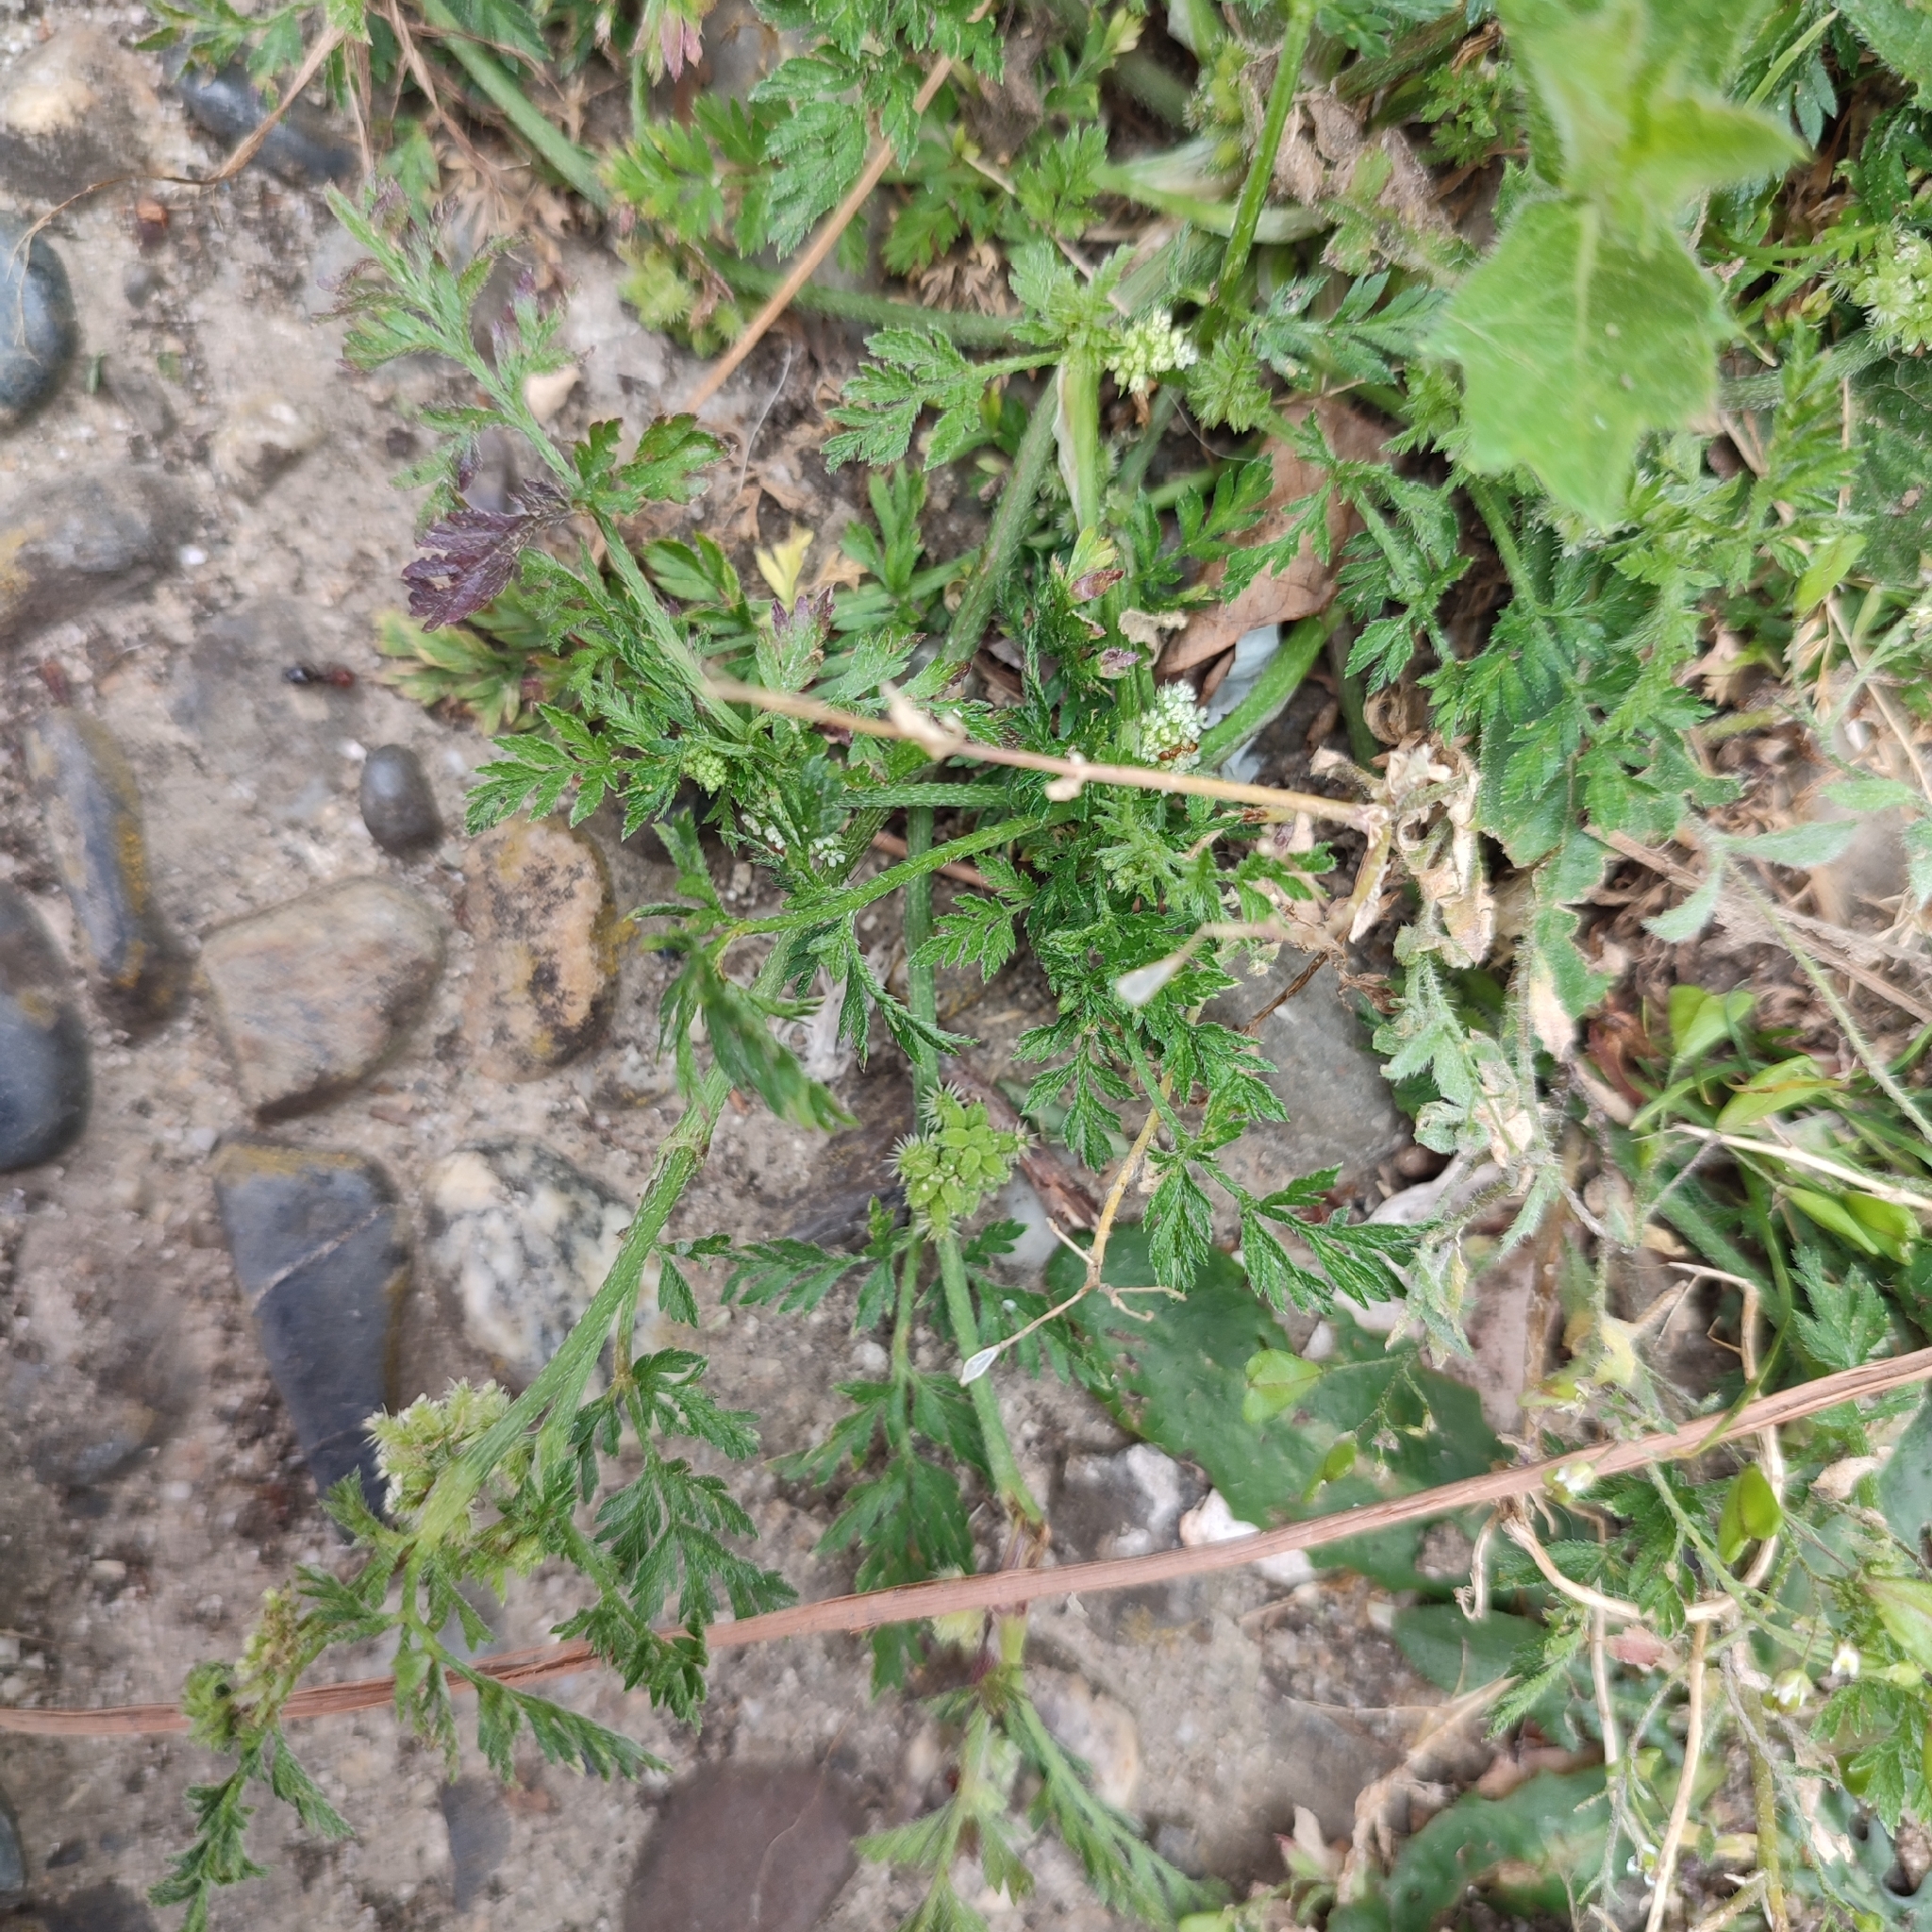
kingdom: Plantae
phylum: Tracheophyta
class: Magnoliopsida
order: Apiales
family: Apiaceae
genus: Torilis
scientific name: Torilis nodosa
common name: Knotted hedge-parsley
